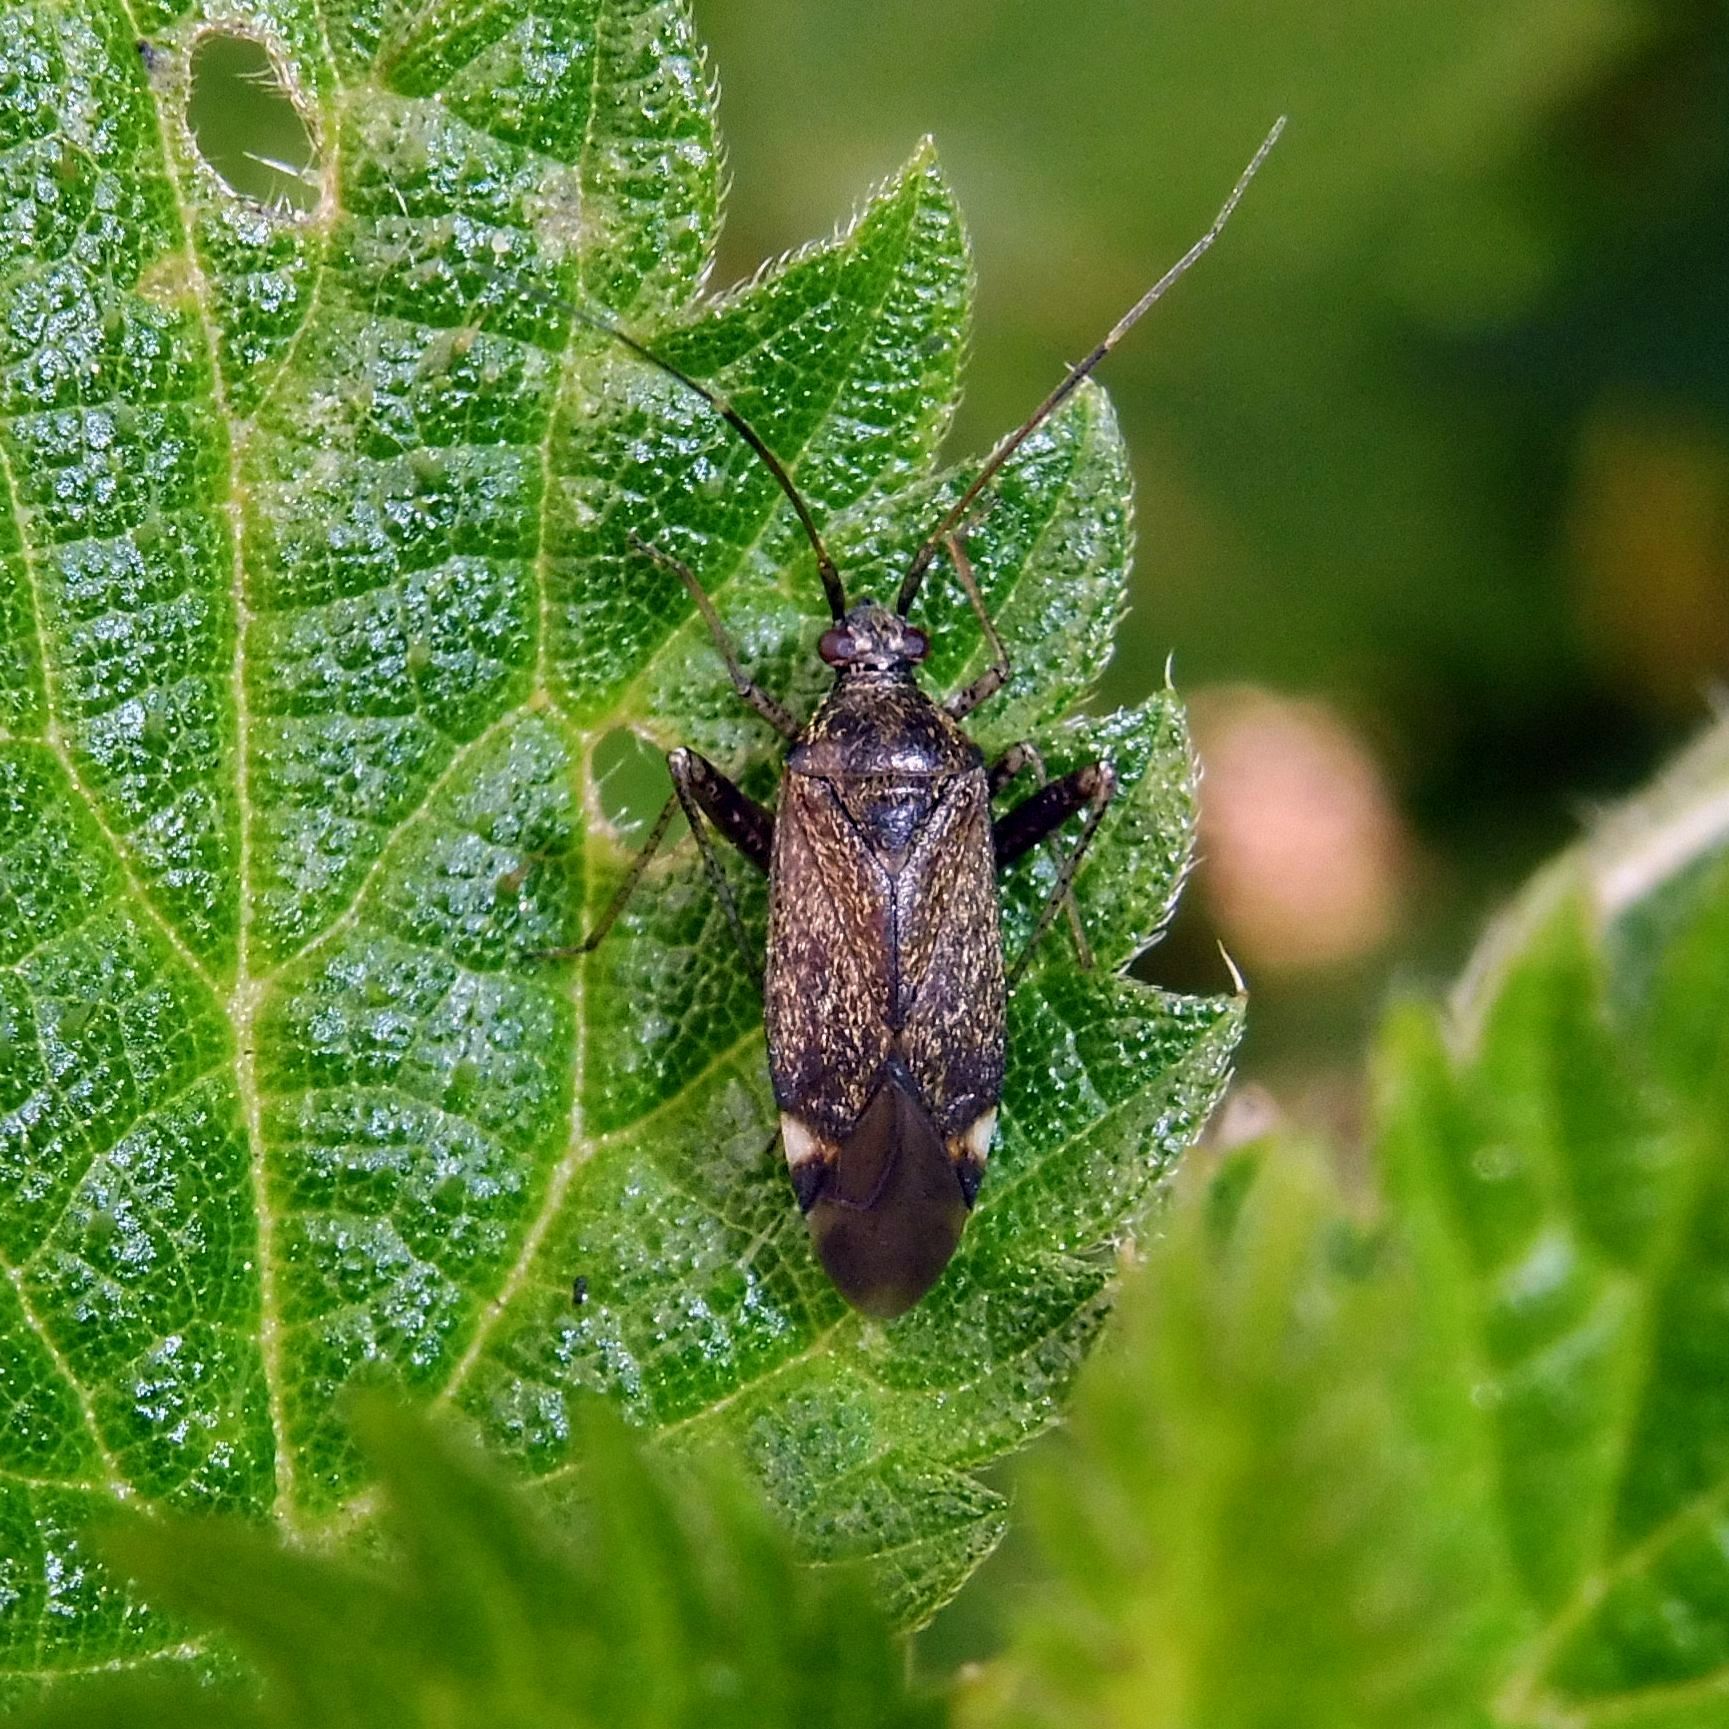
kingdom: Animalia
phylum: Arthropoda
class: Insecta
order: Hemiptera
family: Miridae
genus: Closterotomus
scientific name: Closterotomus fulvomaculatus
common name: Spotted plant bug
